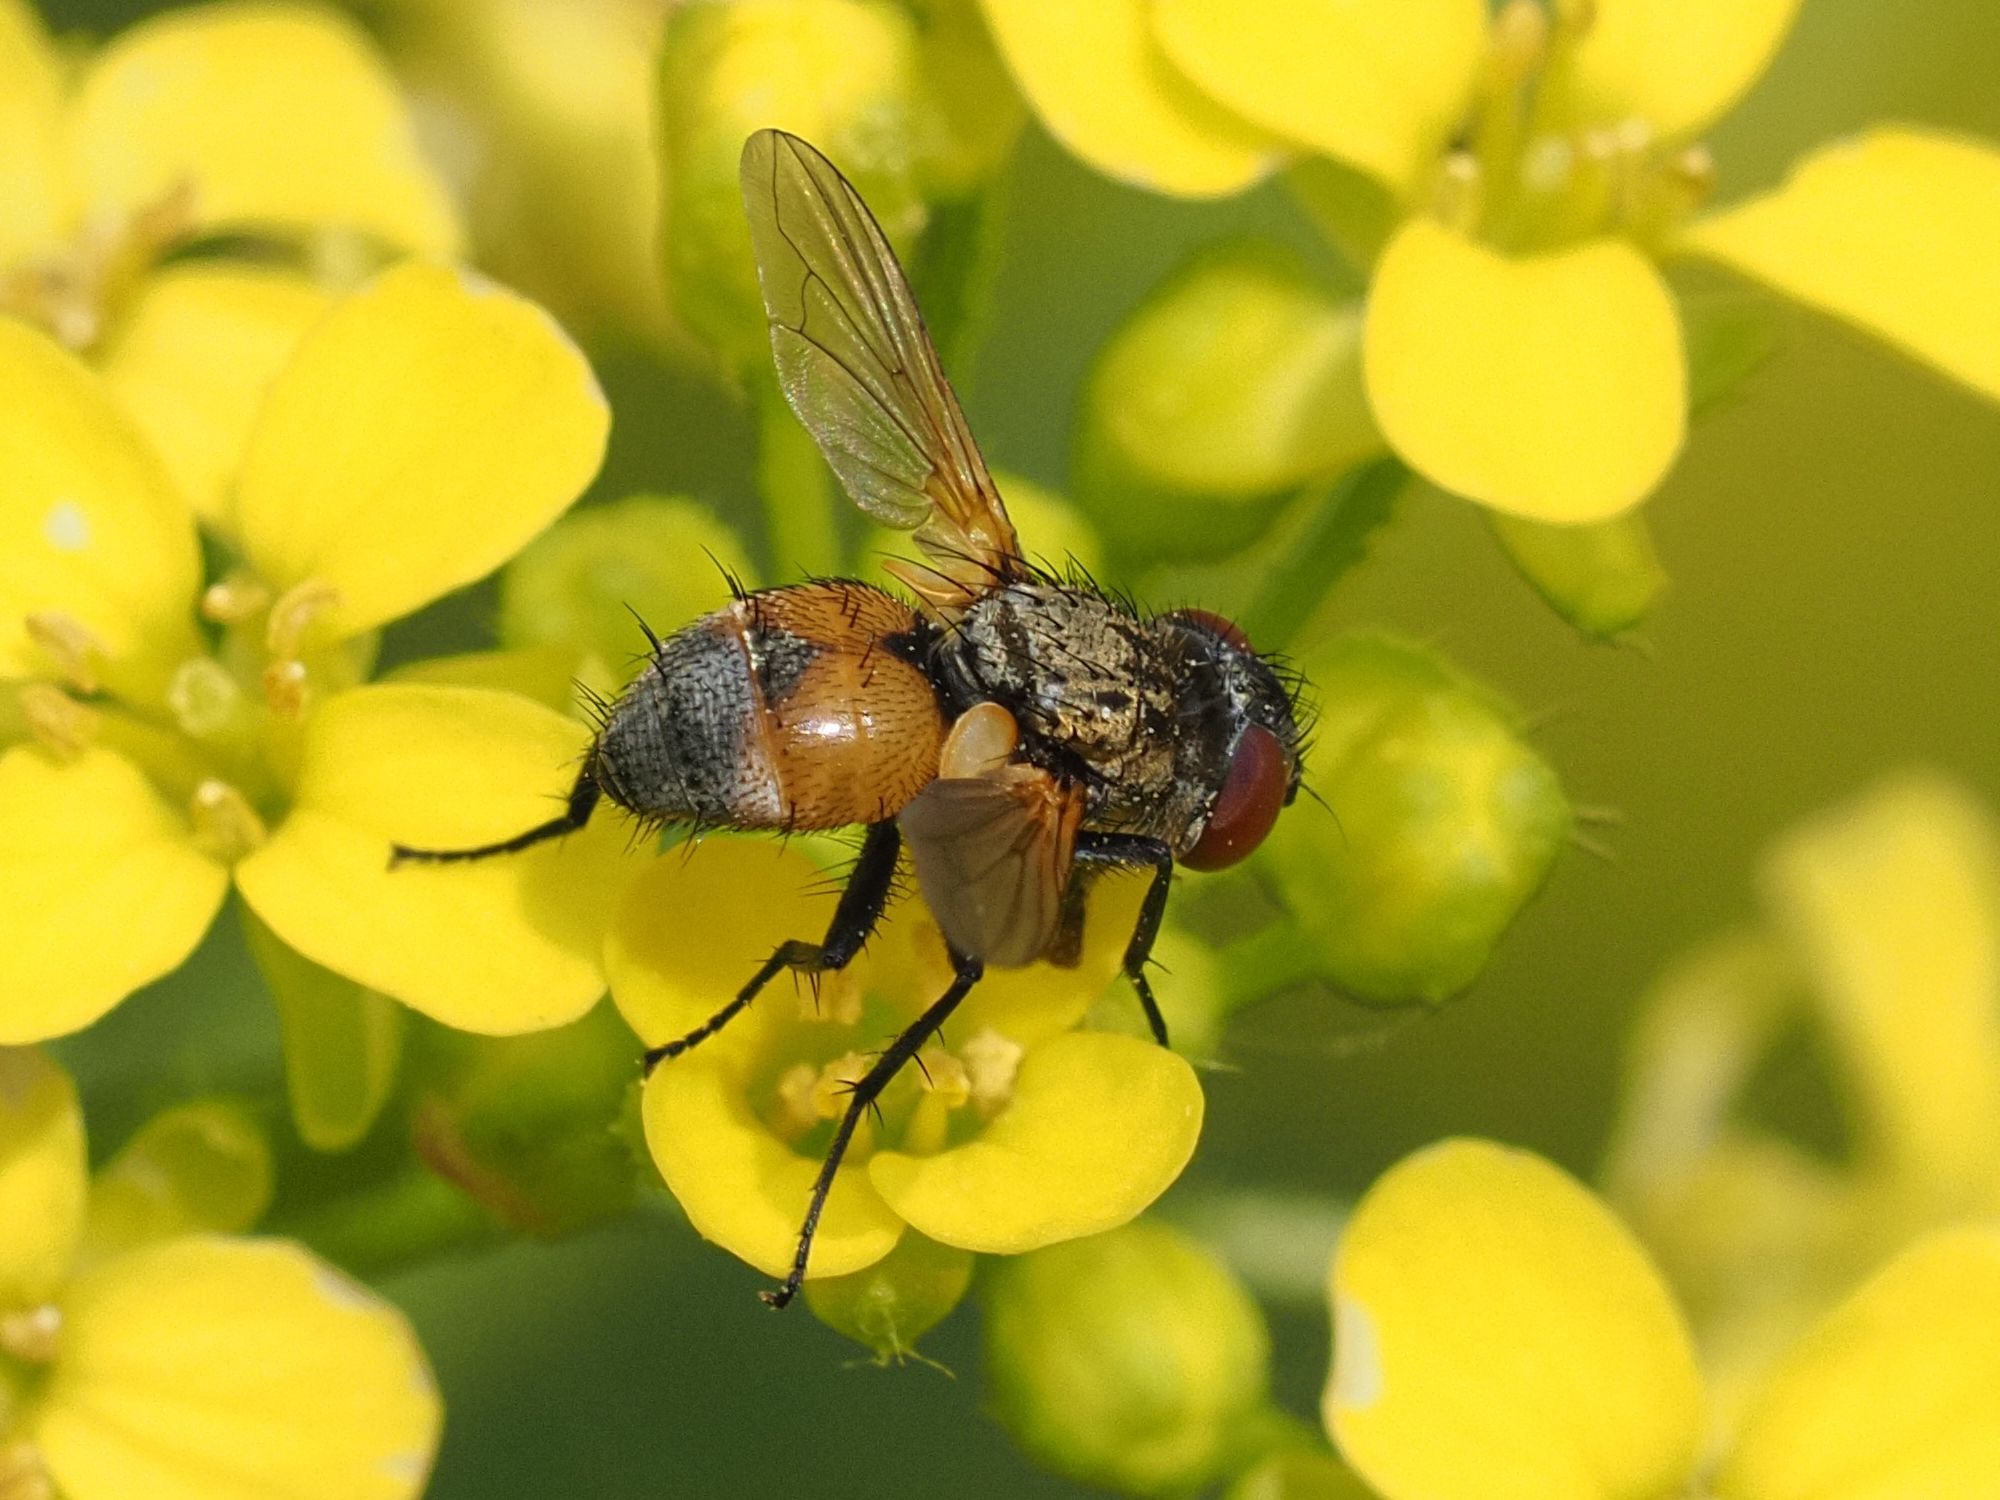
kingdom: Animalia
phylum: Arthropoda
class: Insecta
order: Diptera
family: Tachinidae
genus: Eliozeta
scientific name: Eliozeta pellucens
